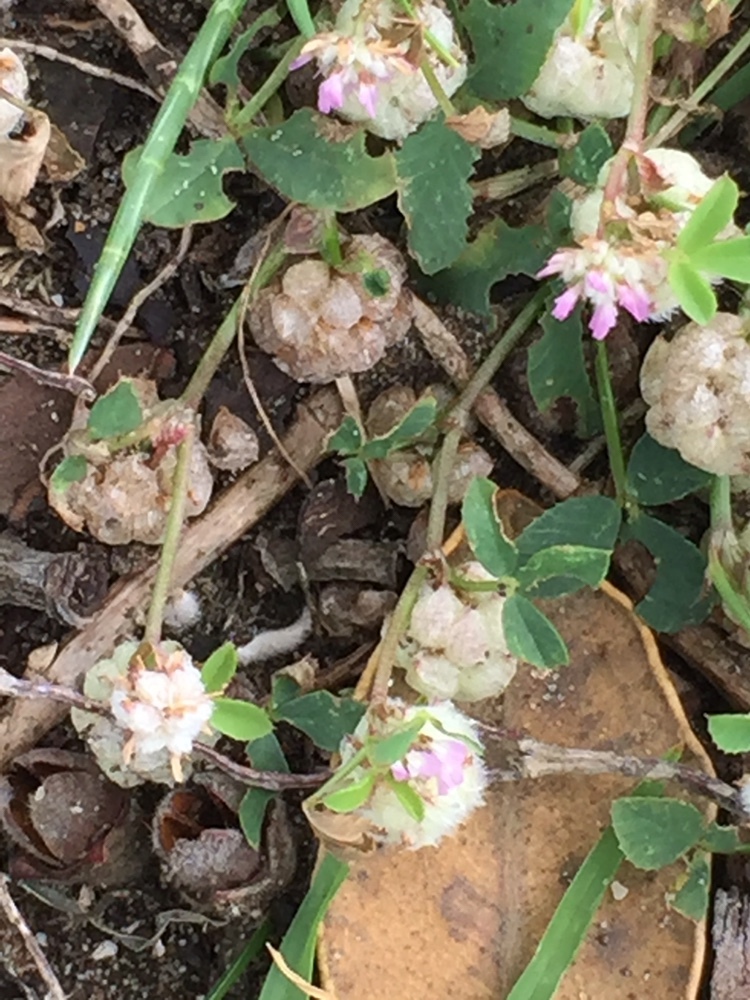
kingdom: Plantae
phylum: Tracheophyta
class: Magnoliopsida
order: Fabales
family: Fabaceae
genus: Trifolium
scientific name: Trifolium tomentosum
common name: Woolly clover
